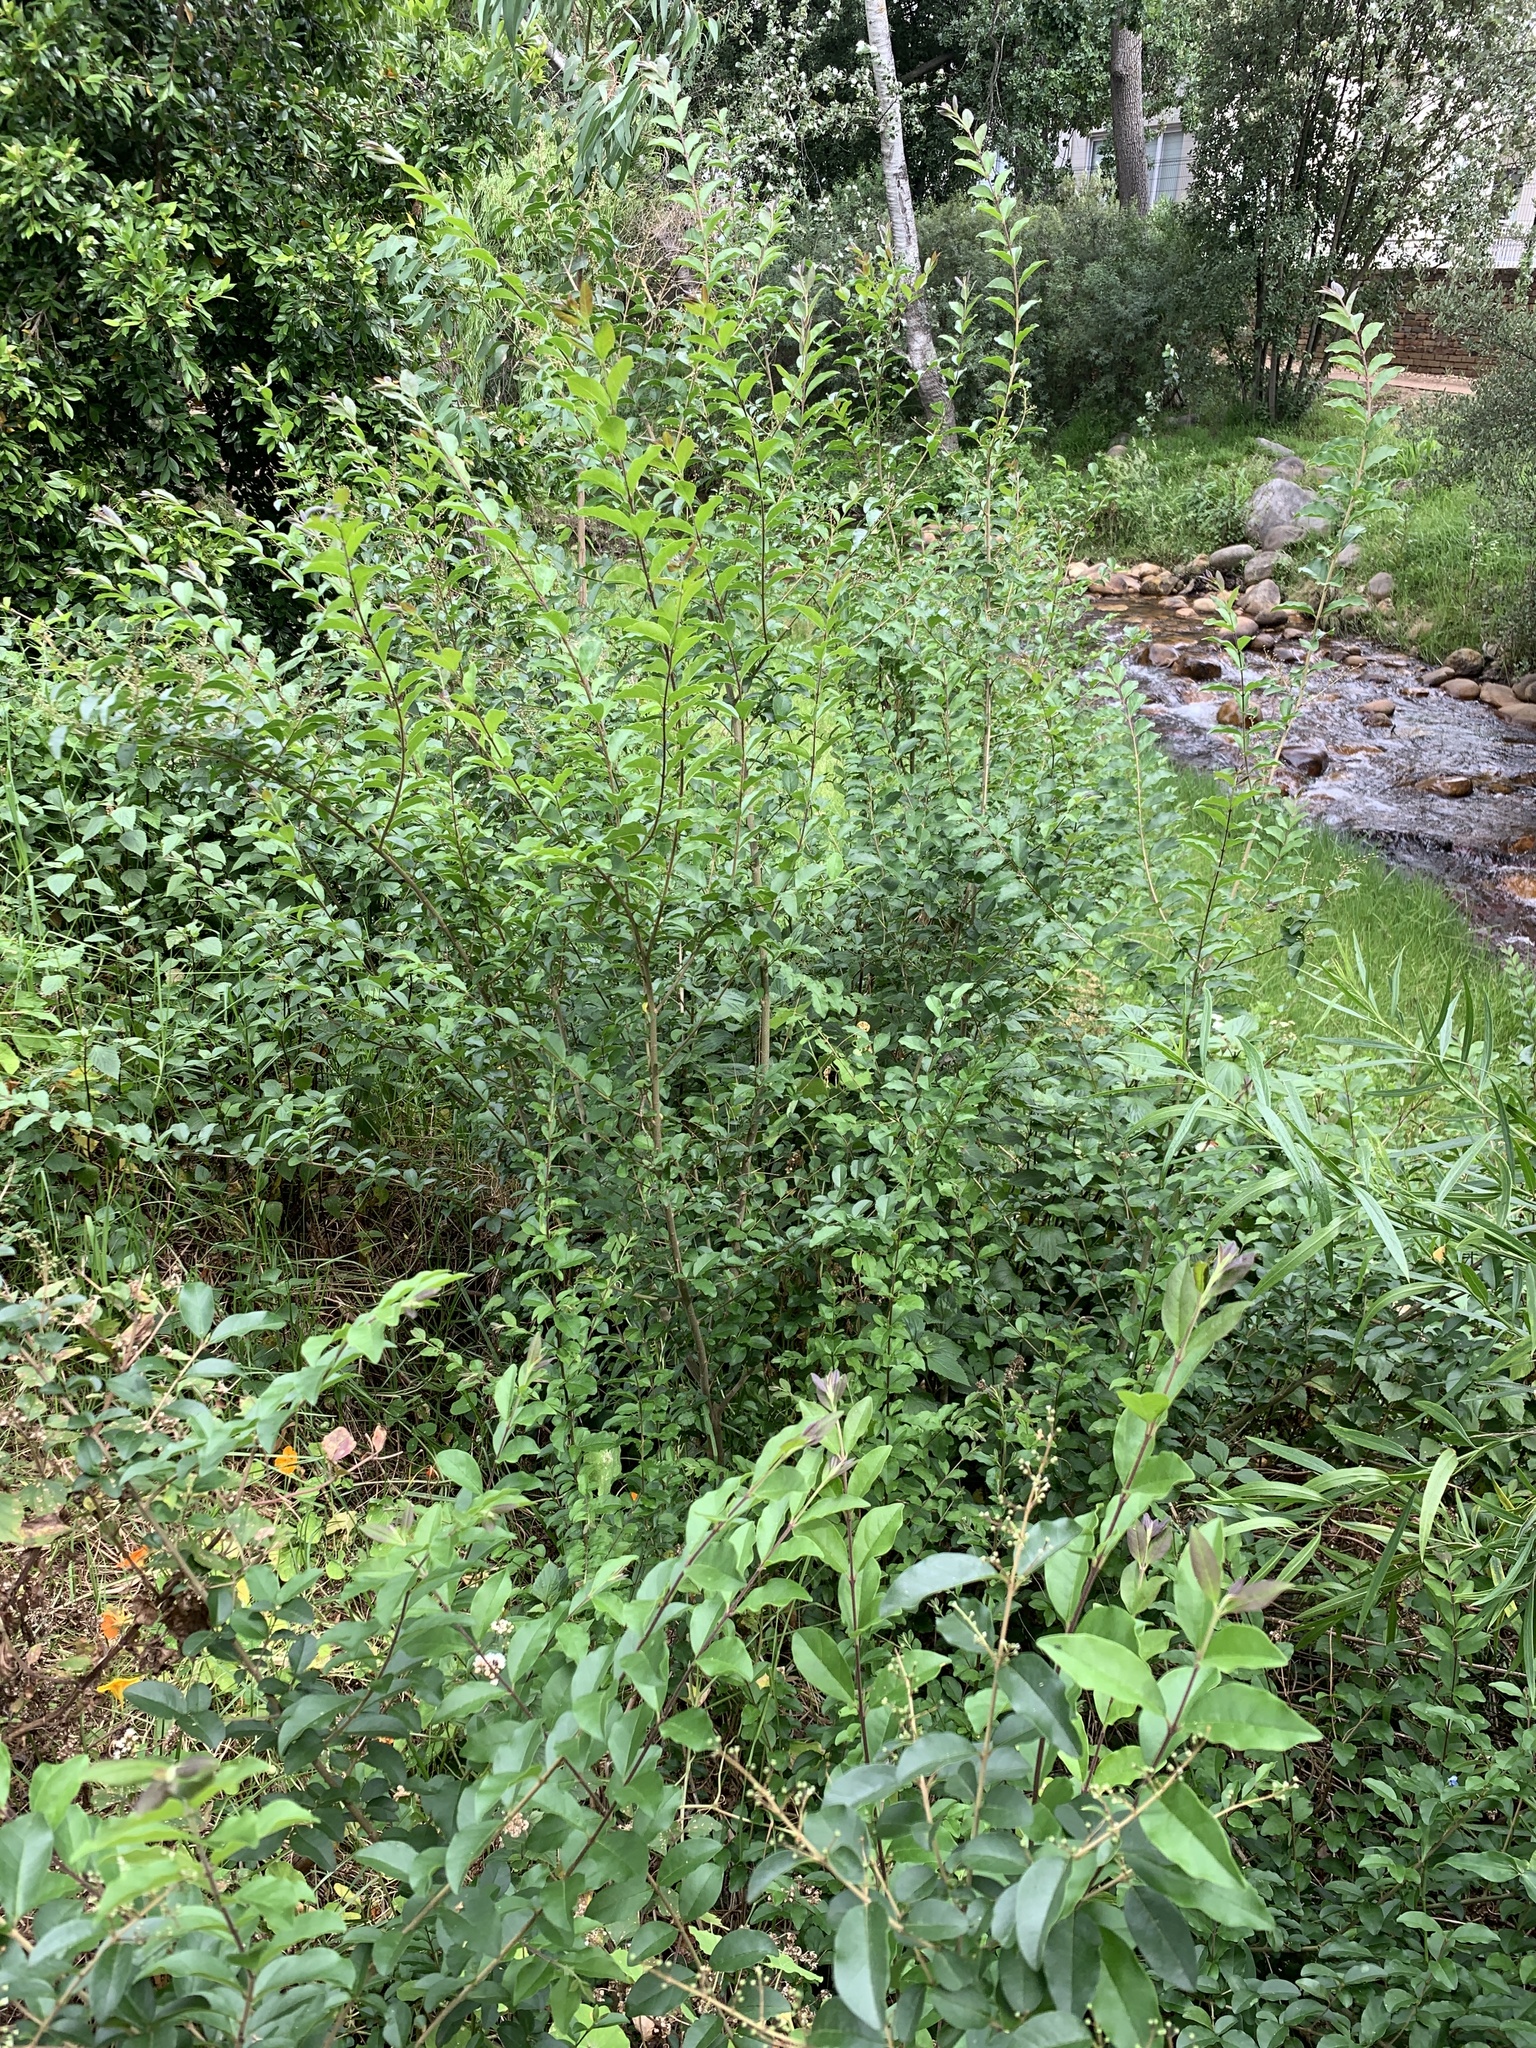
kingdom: Plantae
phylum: Tracheophyta
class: Magnoliopsida
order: Lamiales
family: Oleaceae
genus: Ligustrum
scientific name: Ligustrum sinense
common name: Chinese privet
